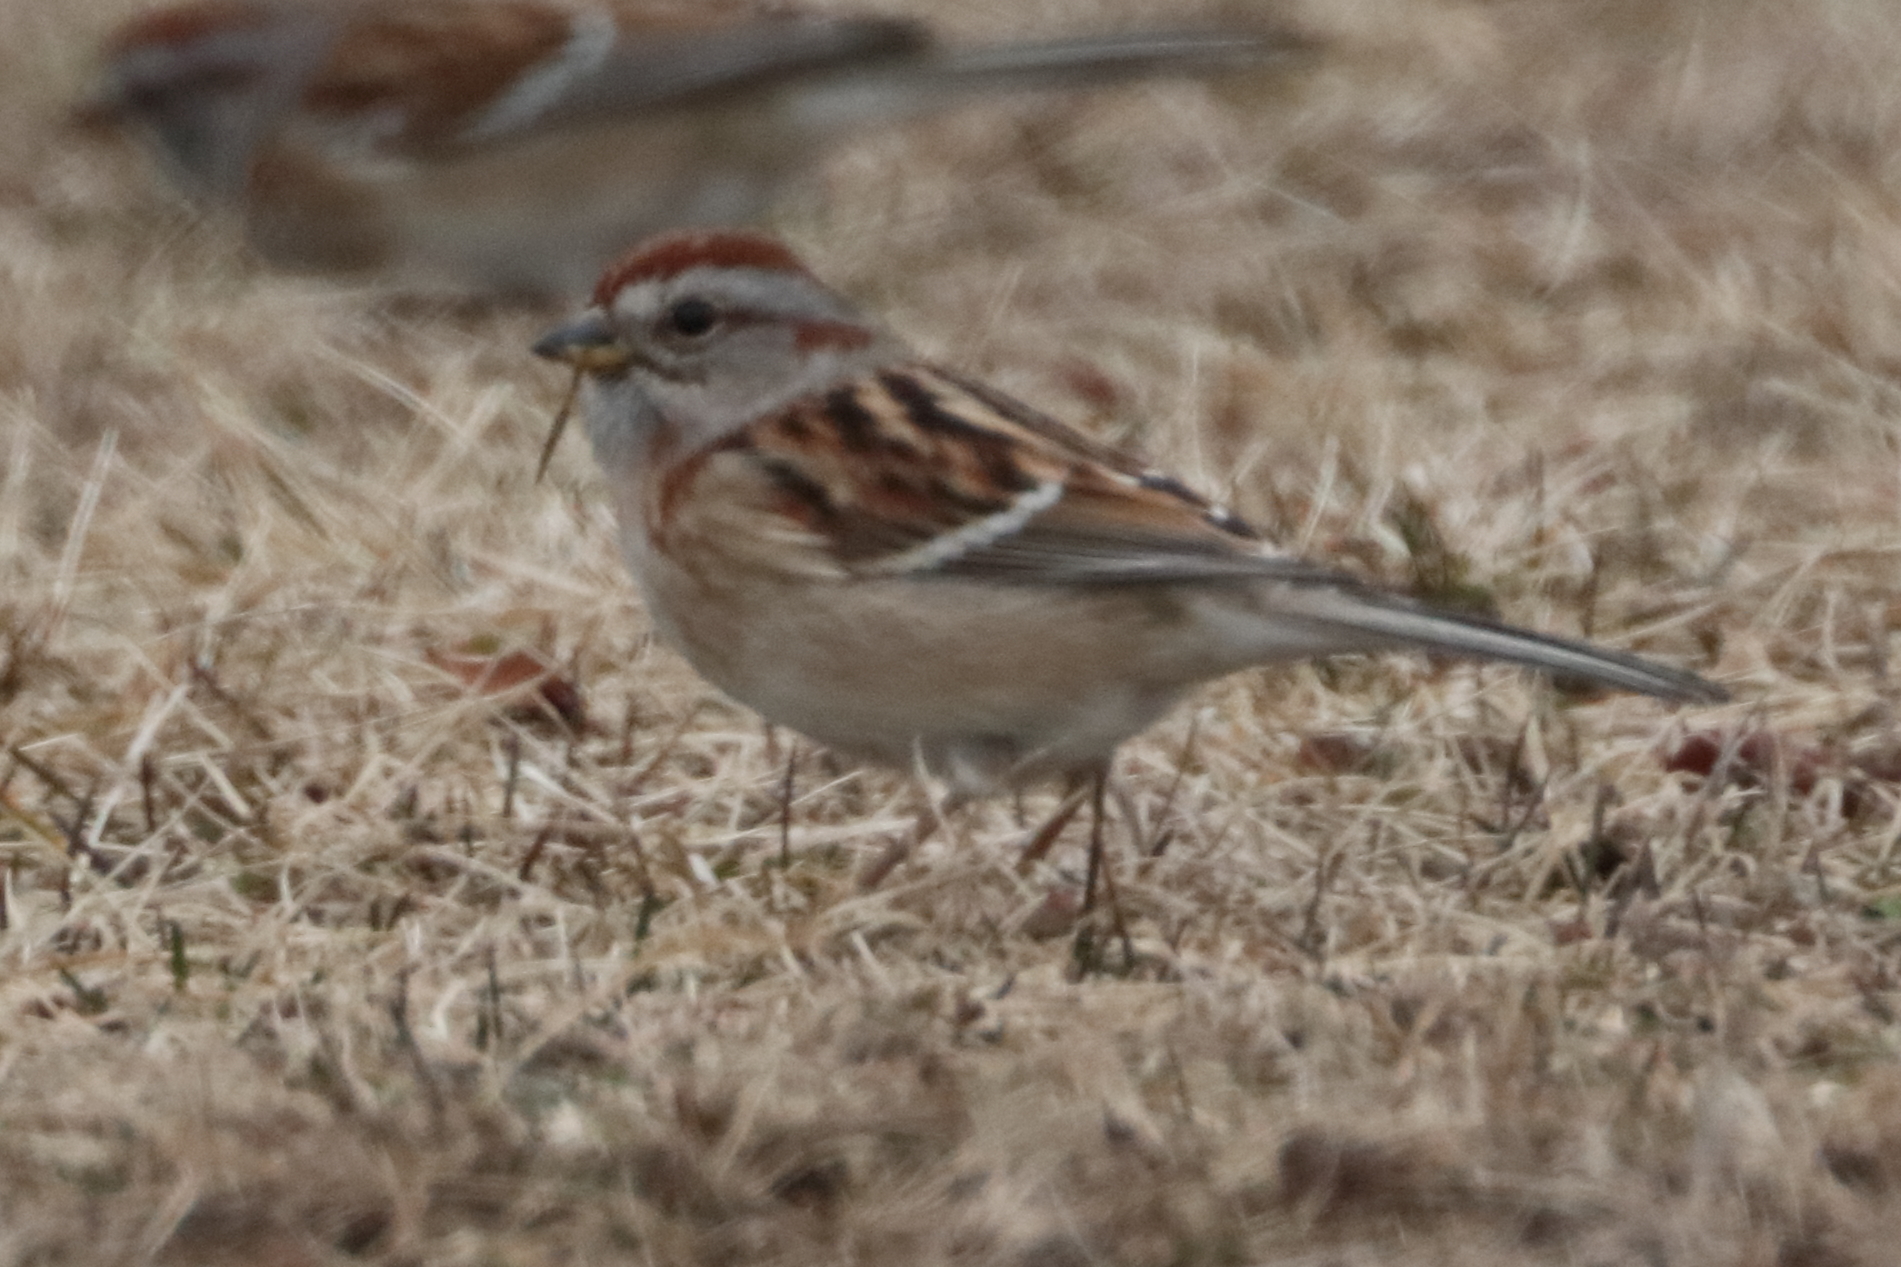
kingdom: Animalia
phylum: Chordata
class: Aves
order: Passeriformes
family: Passerellidae
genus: Spizelloides
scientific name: Spizelloides arborea
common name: American tree sparrow
